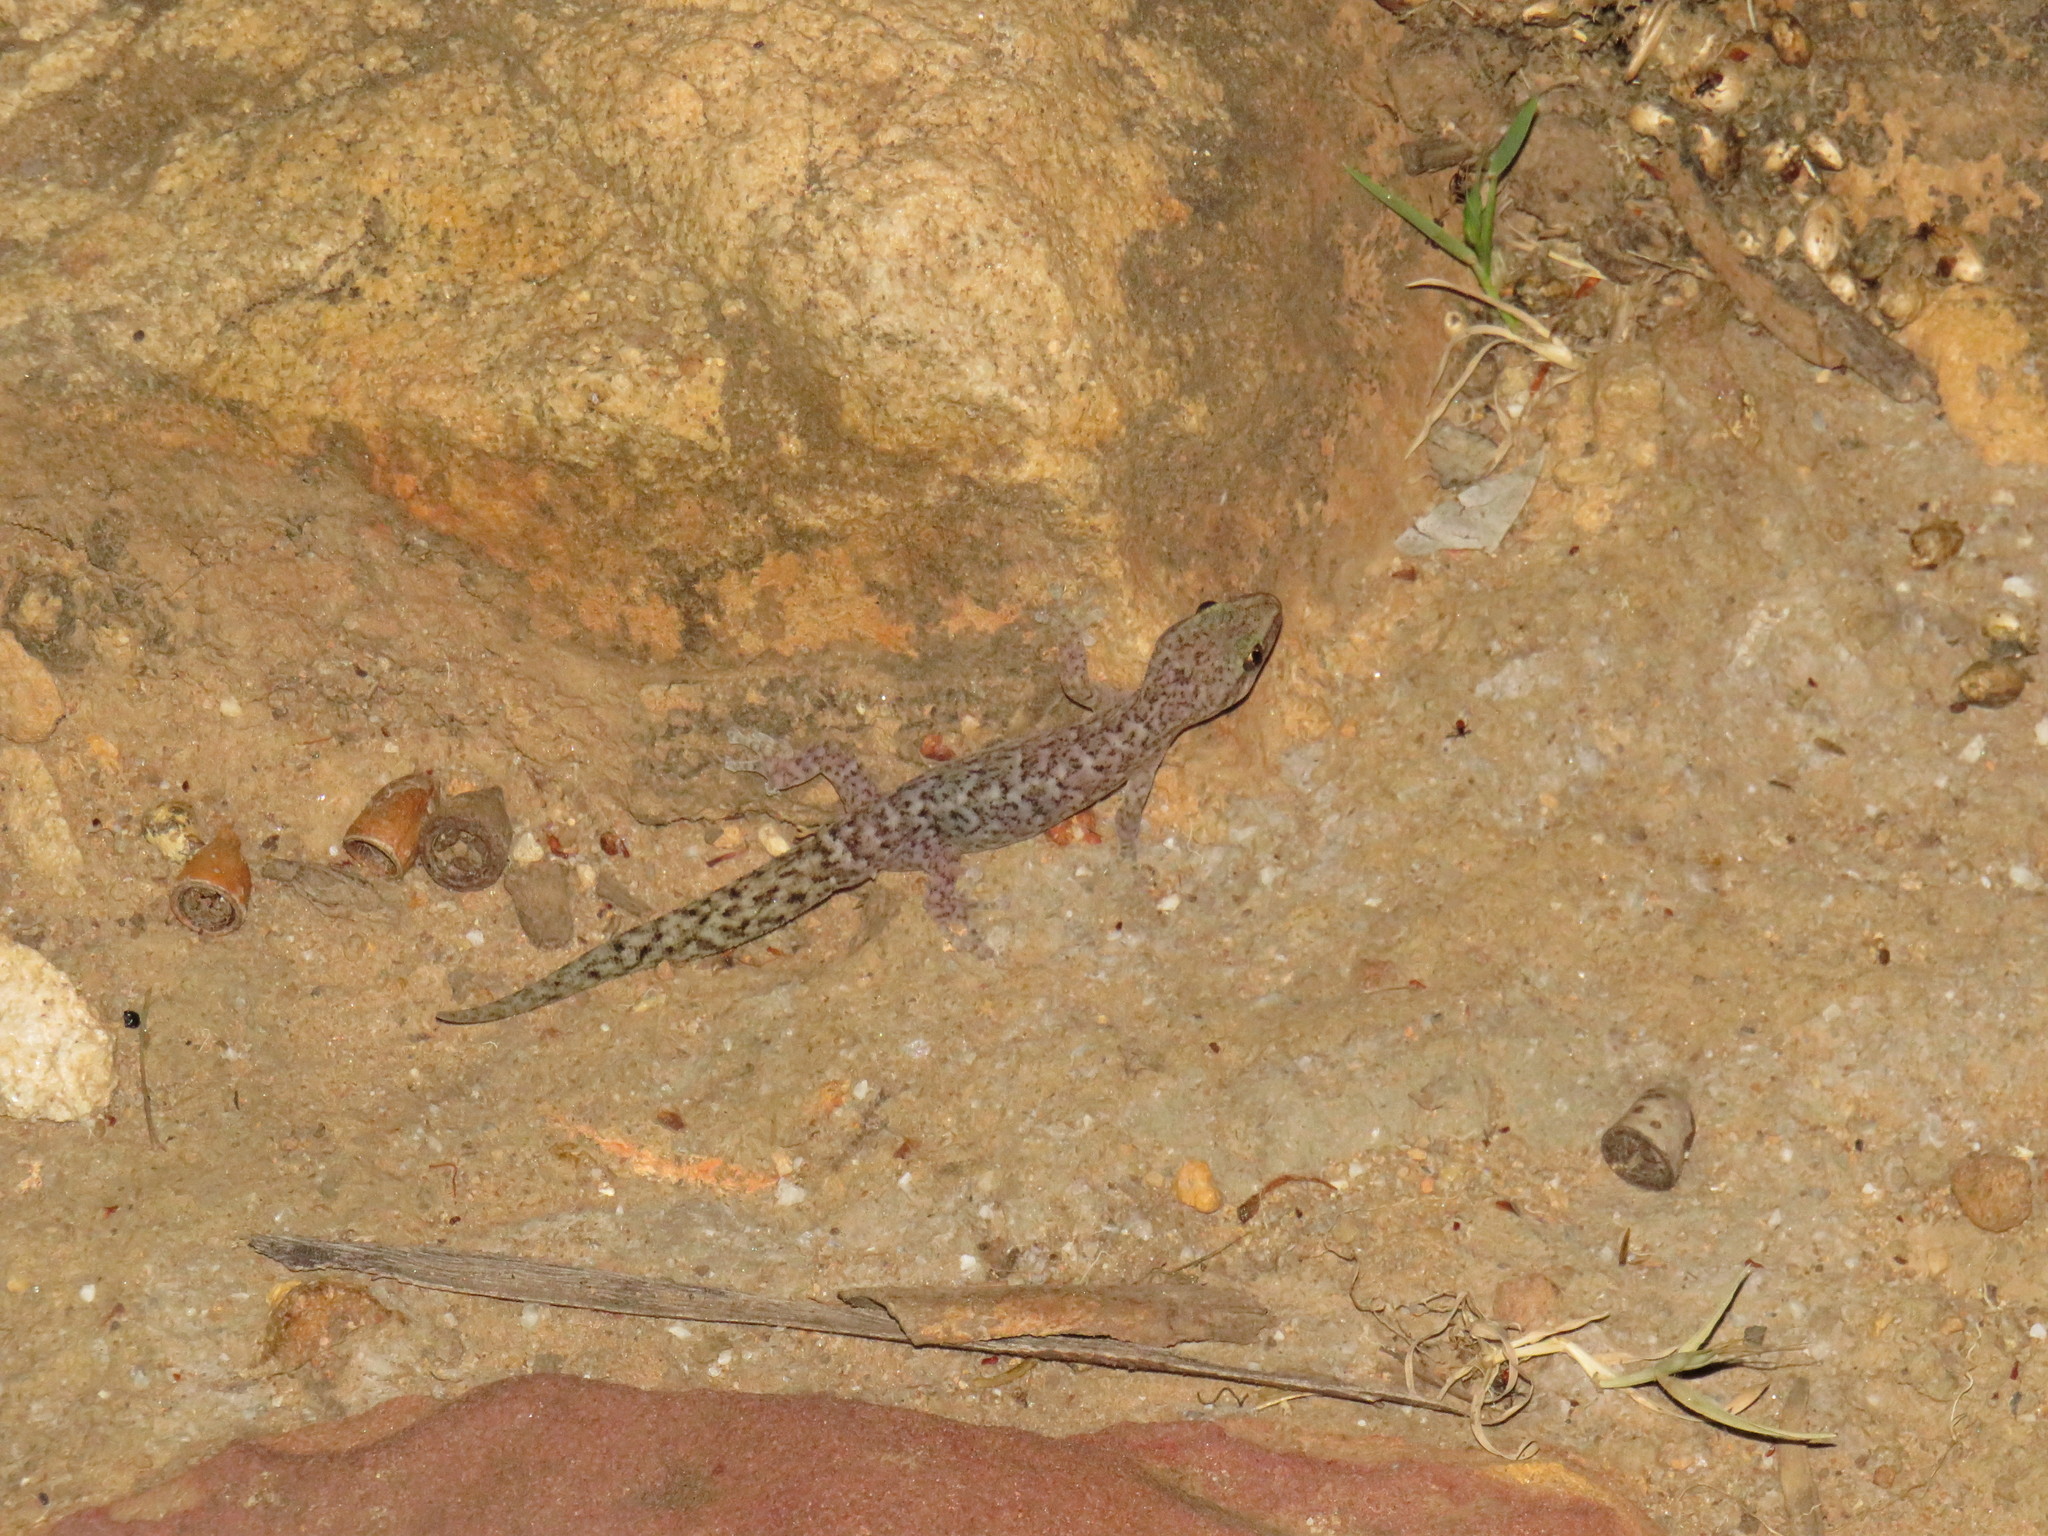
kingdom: Animalia
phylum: Chordata
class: Squamata
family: Gekkonidae
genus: Afrogecko
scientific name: Afrogecko porphyreus
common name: Marbled leaf-toed gecko
